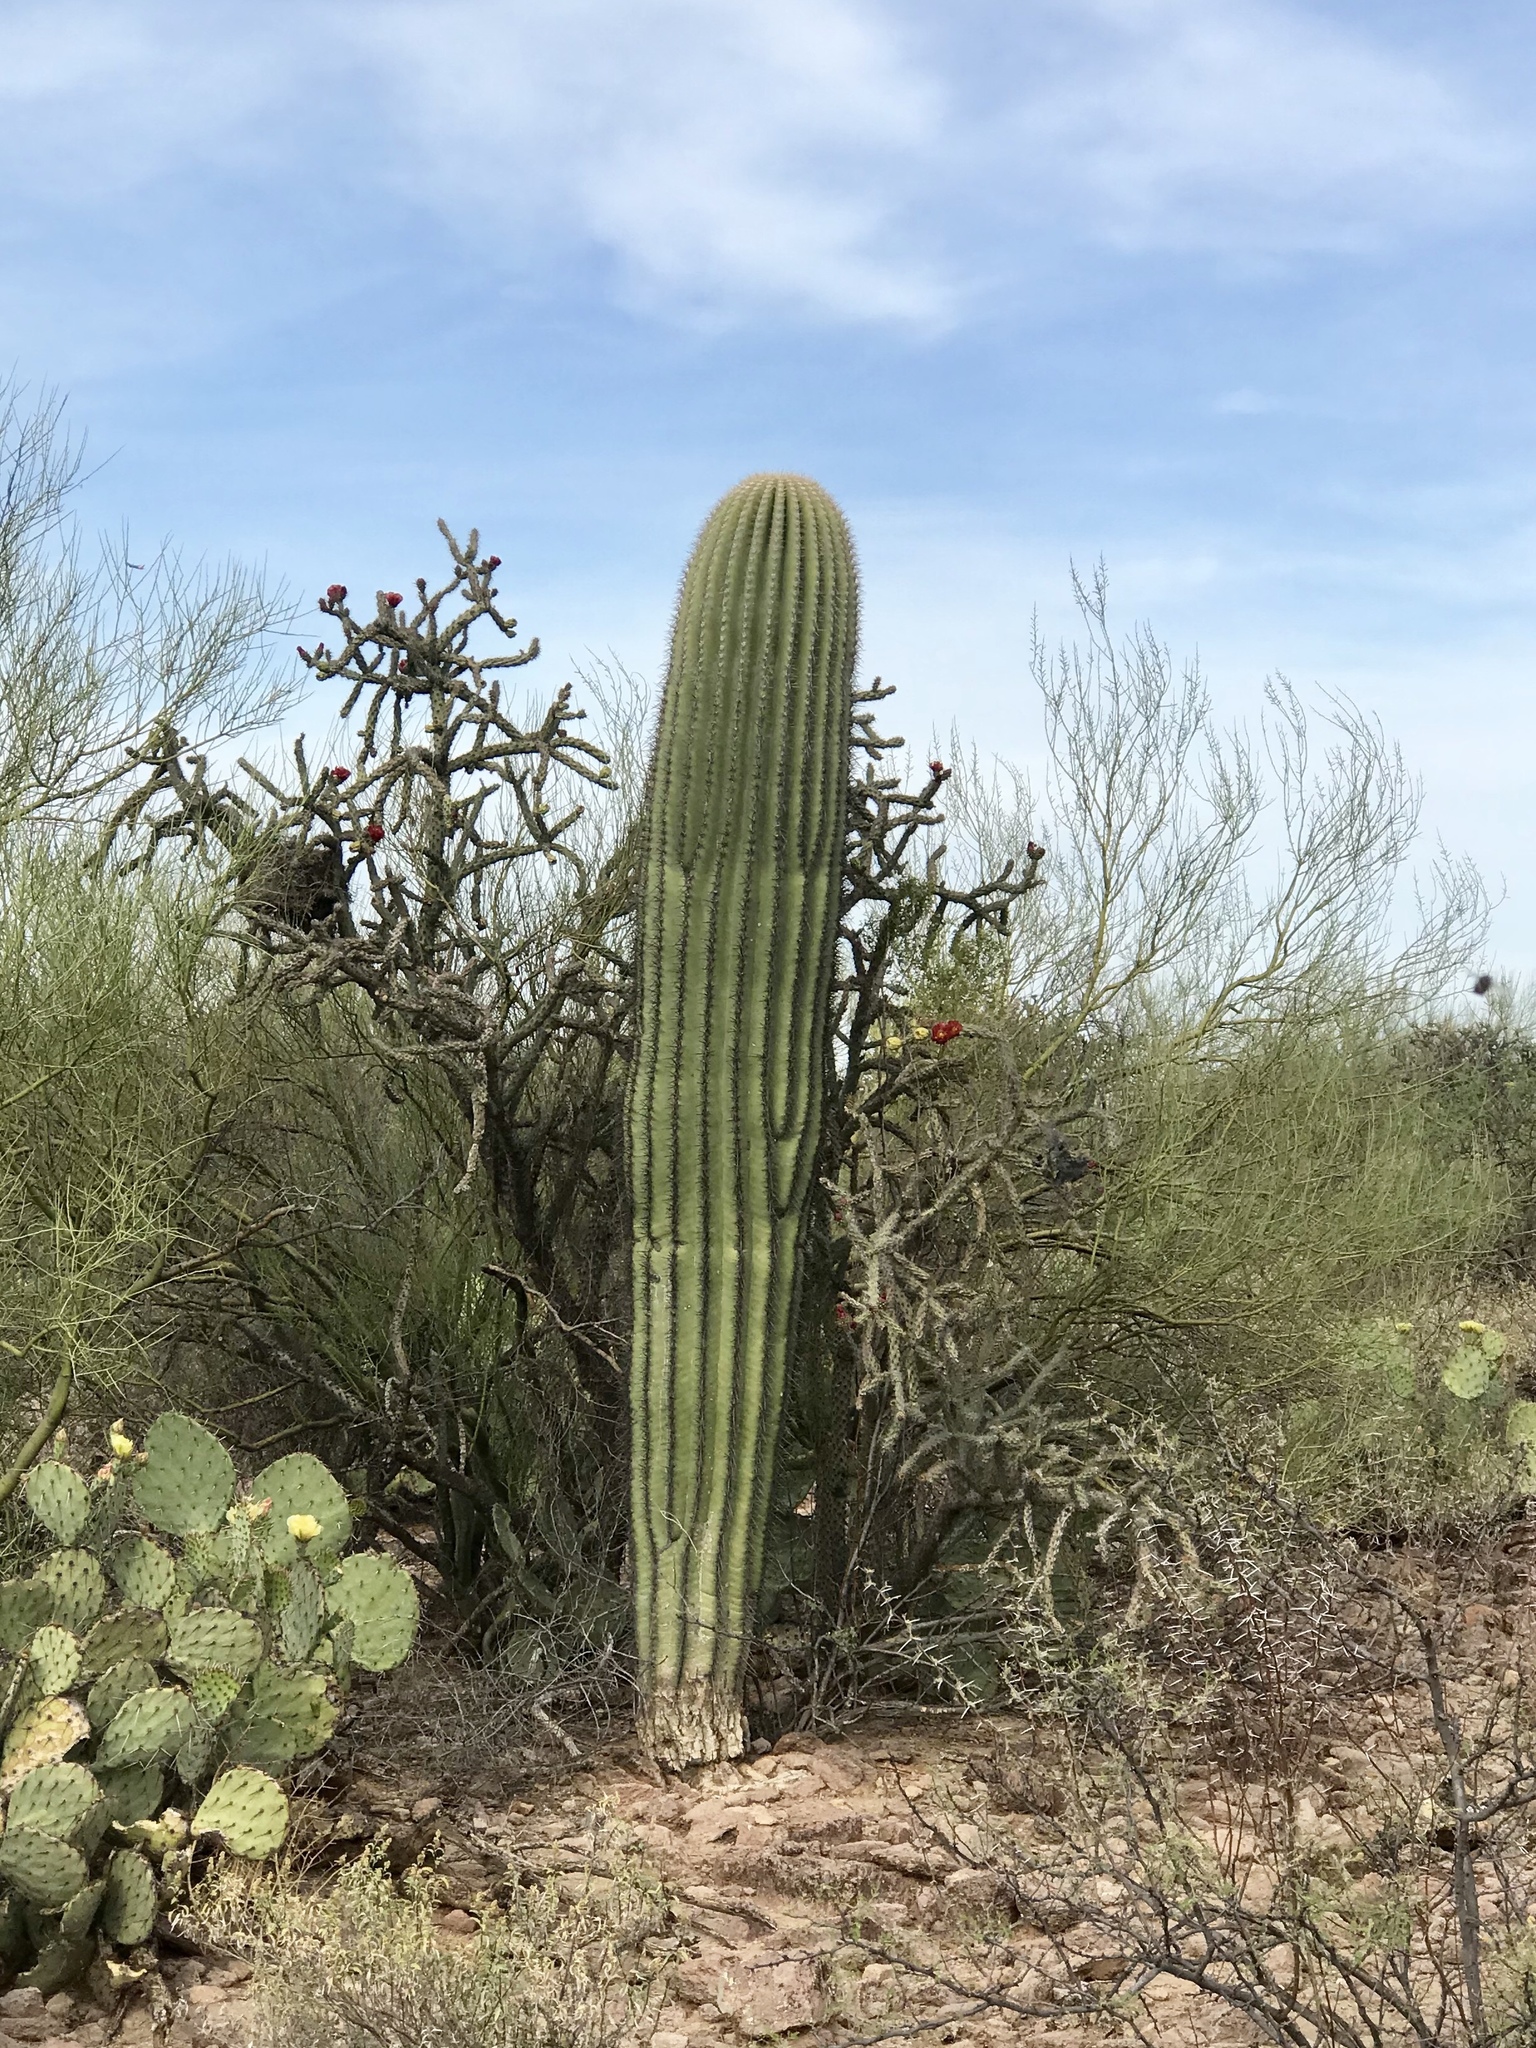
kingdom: Plantae
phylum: Tracheophyta
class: Magnoliopsida
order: Caryophyllales
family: Cactaceae
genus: Carnegiea
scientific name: Carnegiea gigantea
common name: Saguaro
